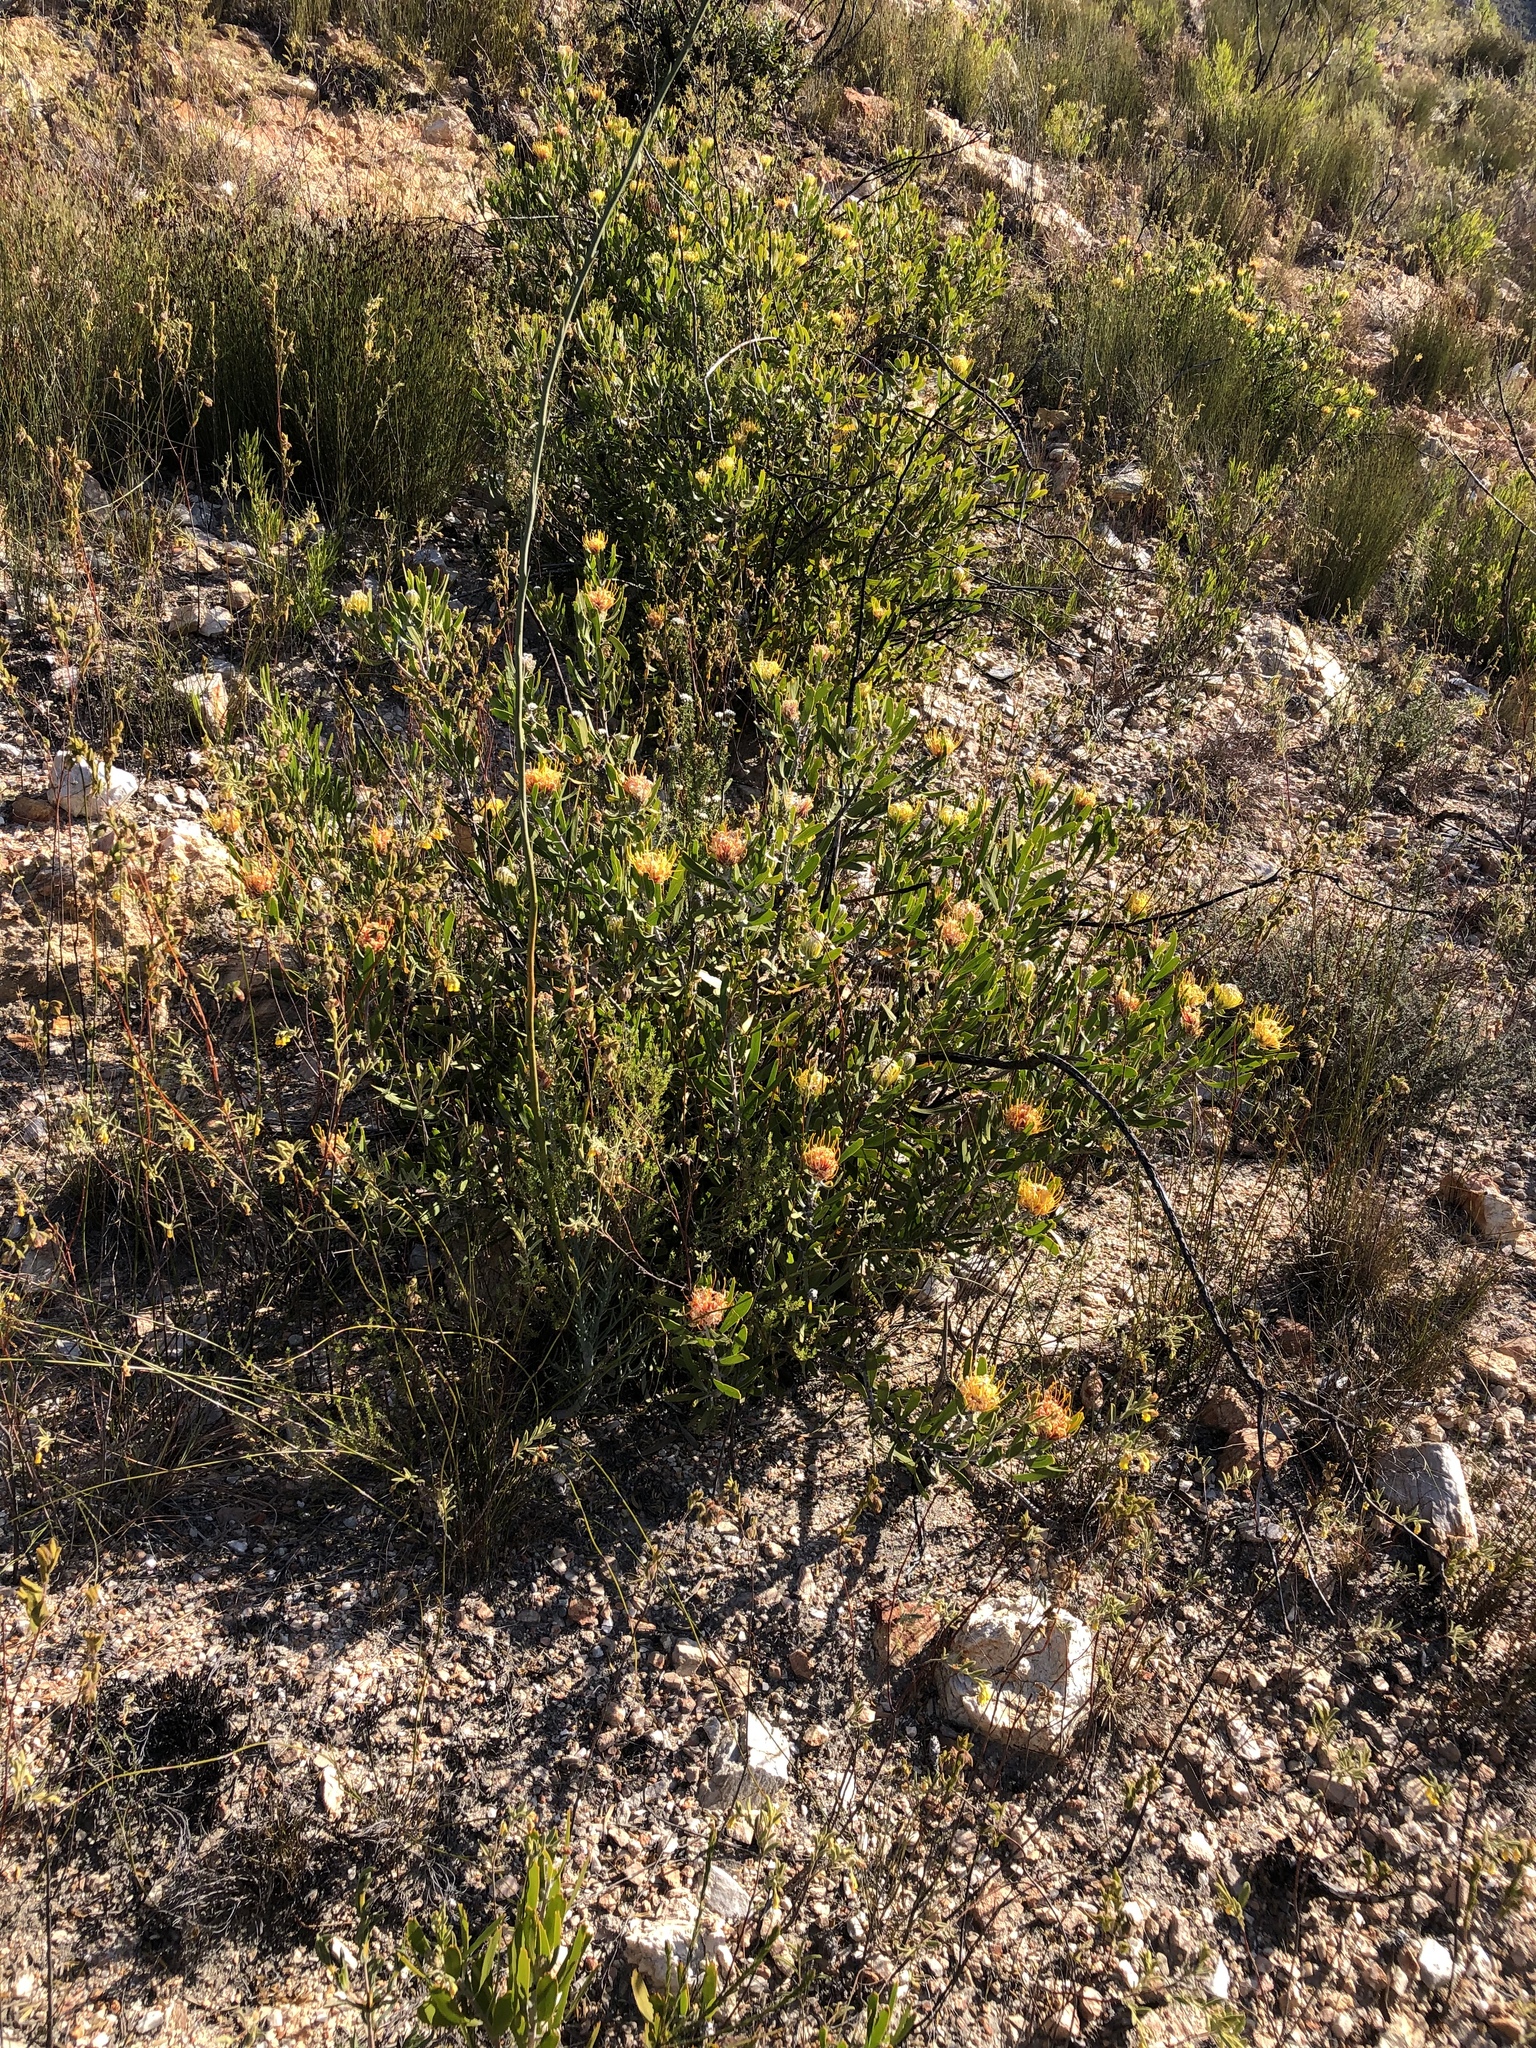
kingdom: Plantae
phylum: Tracheophyta
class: Magnoliopsida
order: Proteales
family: Proteaceae
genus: Leucospermum
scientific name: Leucospermum cuneiforme
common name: Common pincushion
